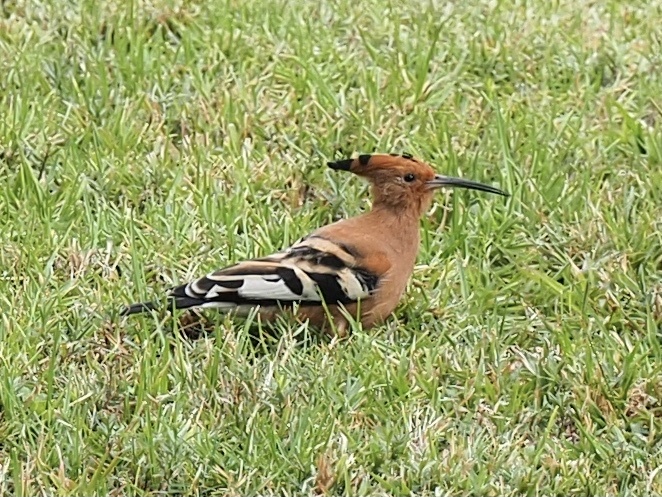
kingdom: Animalia
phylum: Chordata
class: Aves
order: Bucerotiformes
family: Upupidae
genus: Upupa
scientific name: Upupa africana
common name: African hoopoe
